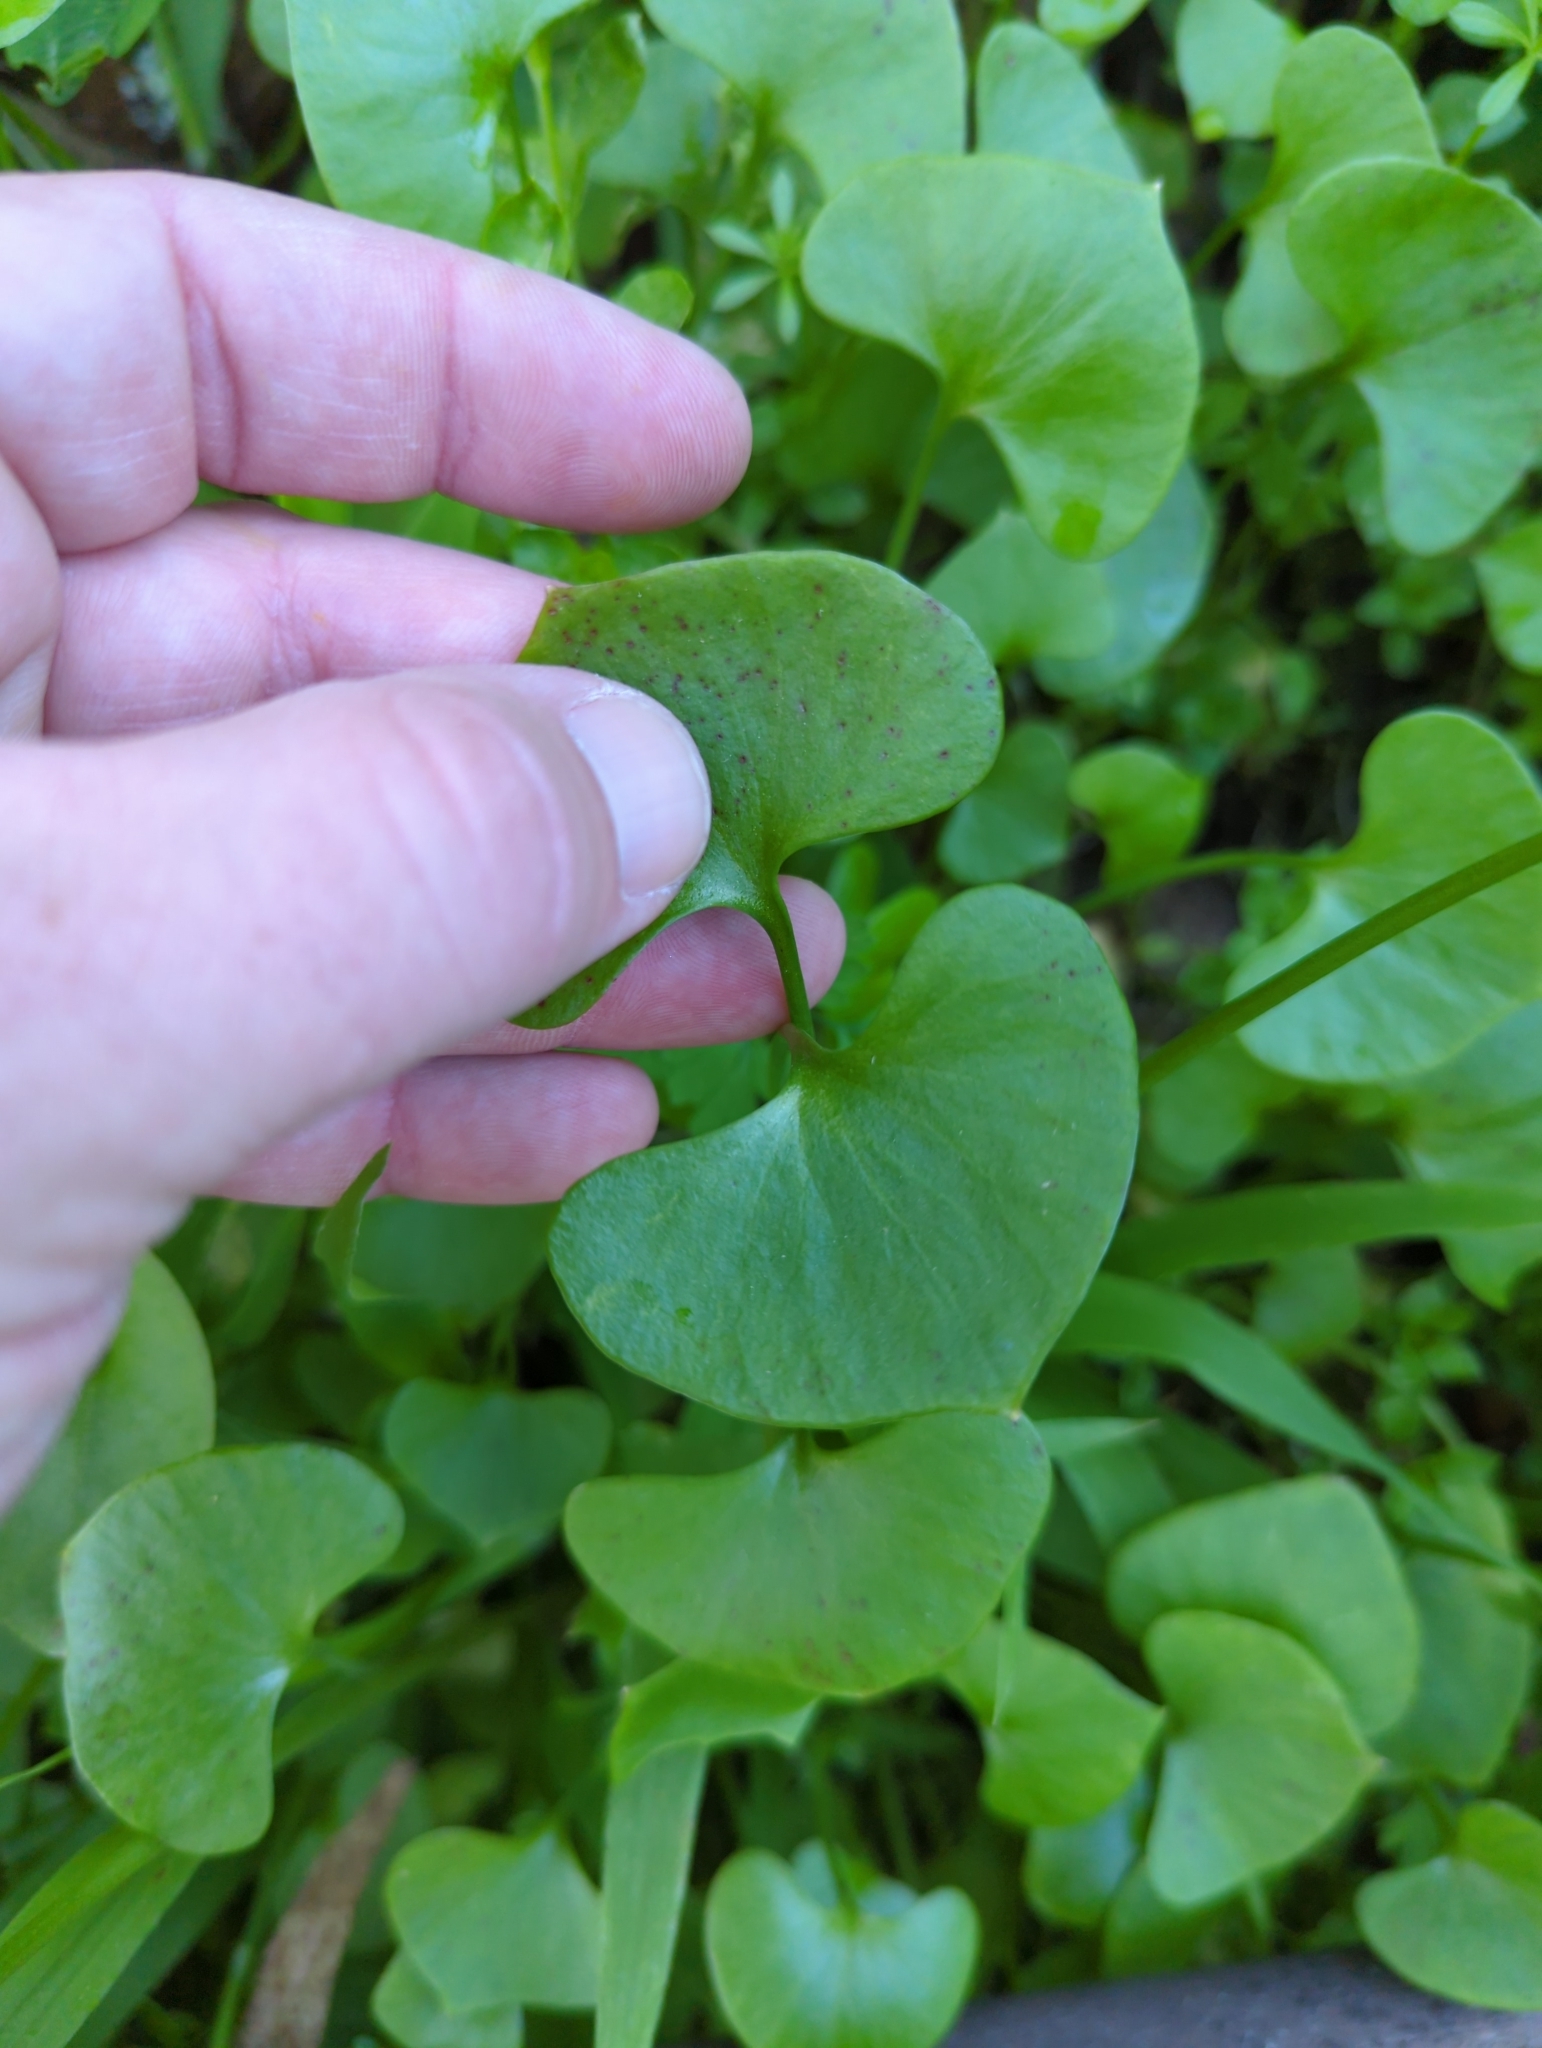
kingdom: Plantae
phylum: Tracheophyta
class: Magnoliopsida
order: Caryophyllales
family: Montiaceae
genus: Claytonia
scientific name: Claytonia perfoliata
